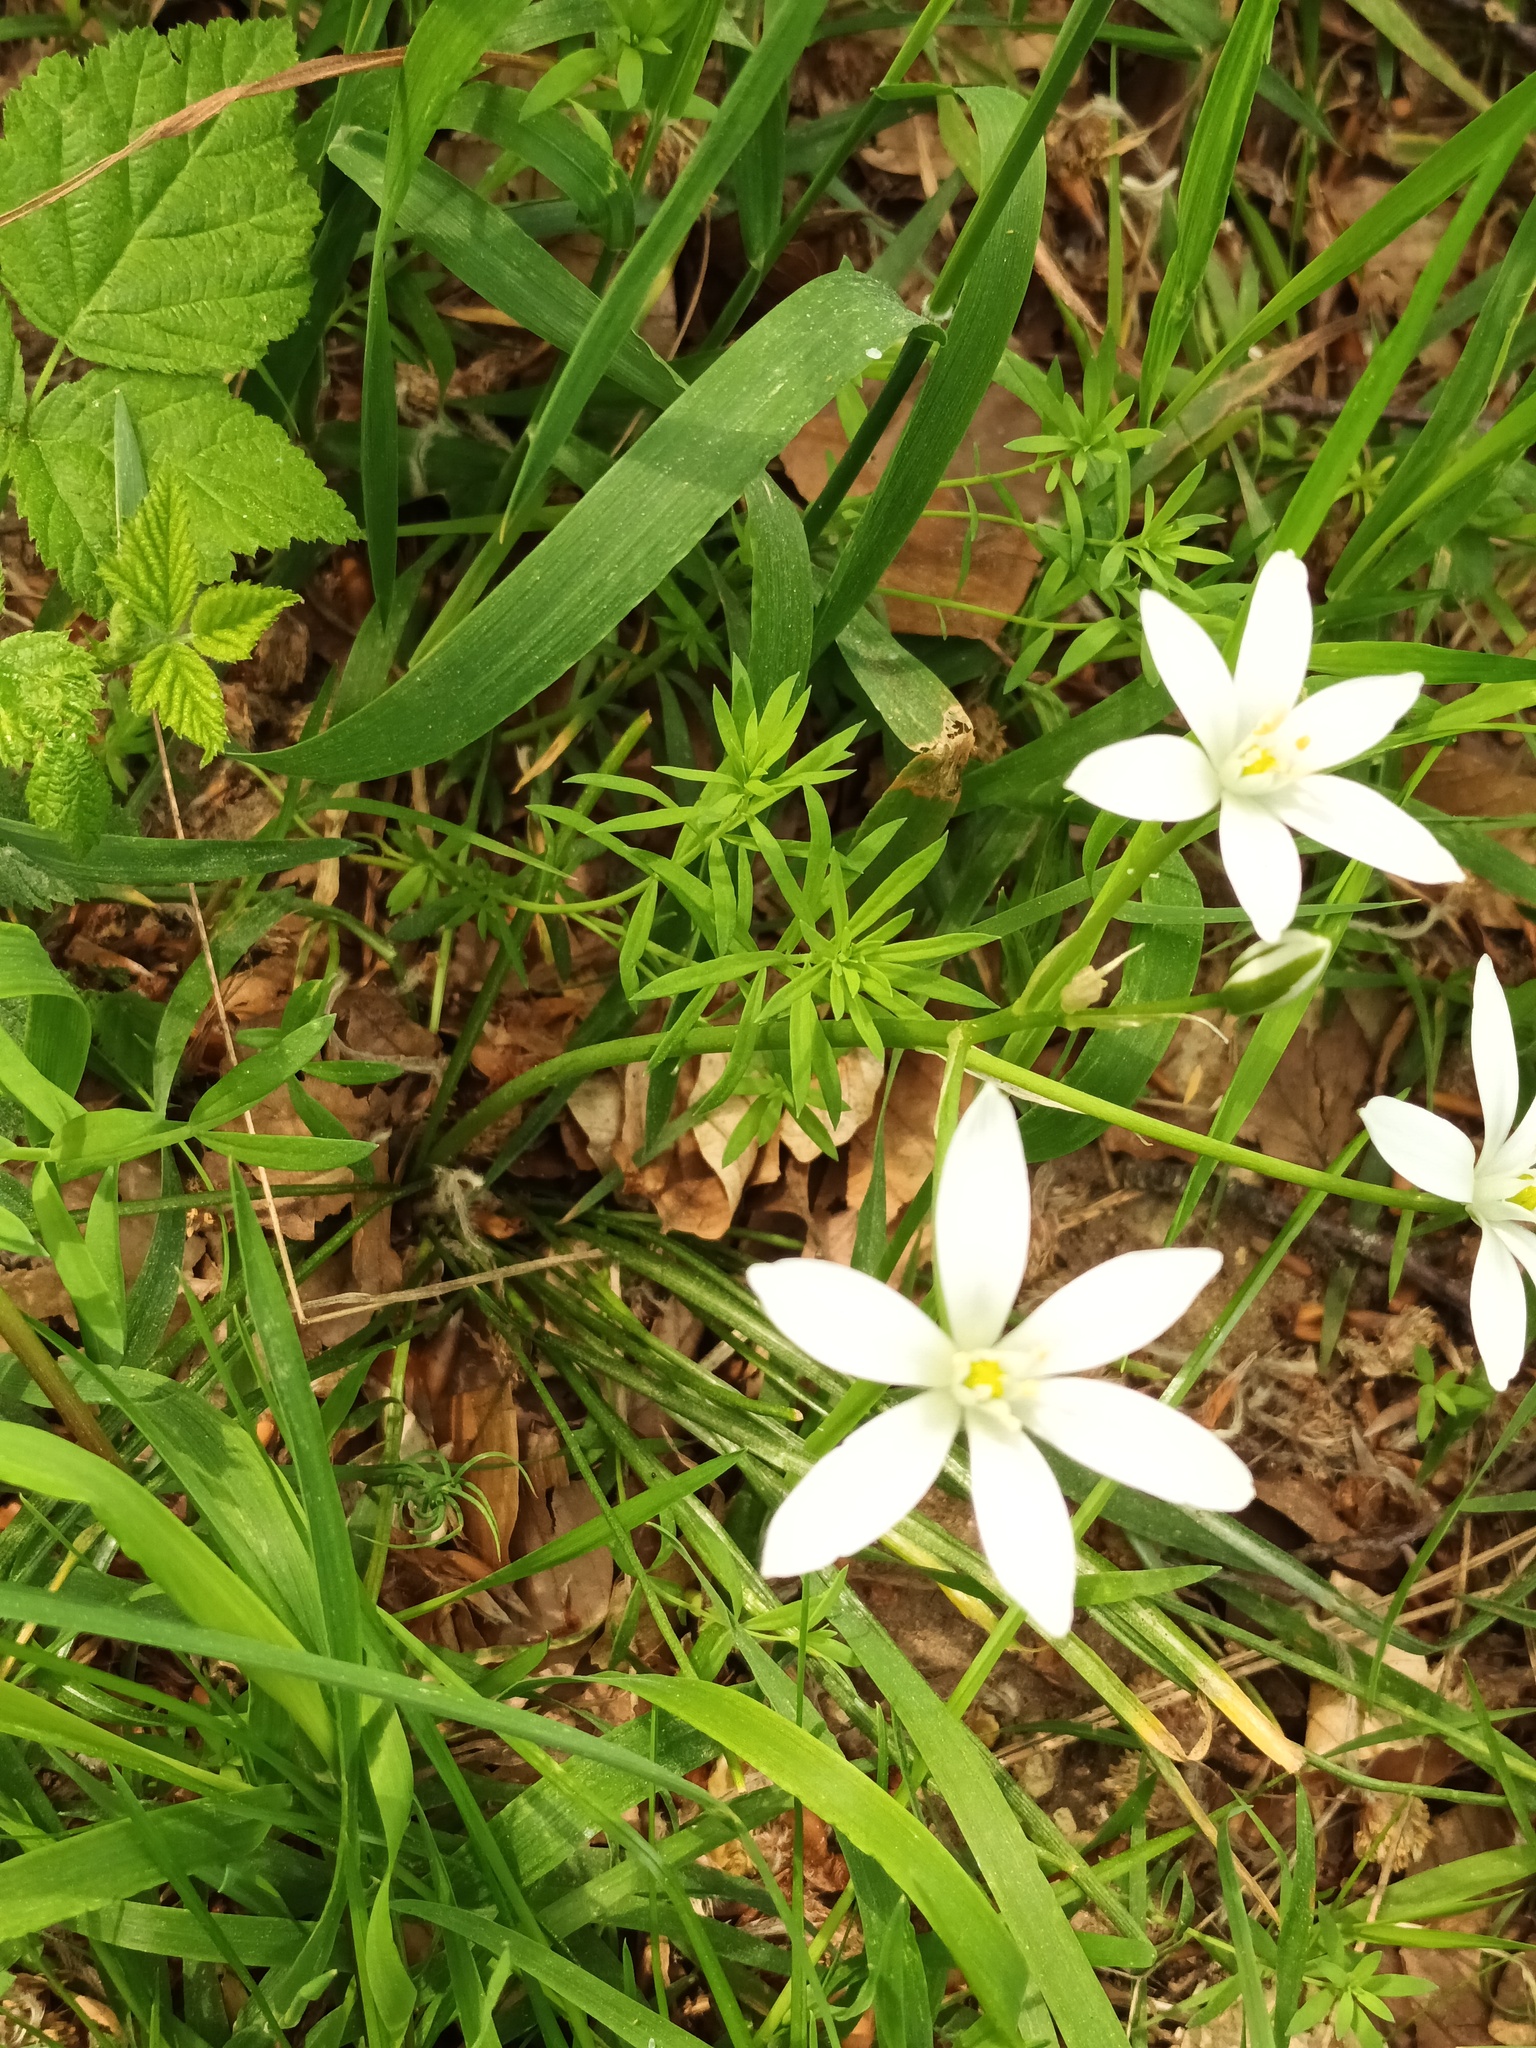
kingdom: Plantae
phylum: Tracheophyta
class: Liliopsida
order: Asparagales
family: Asparagaceae
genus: Ornithogalum
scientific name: Ornithogalum umbellatum
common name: Garden star-of-bethlehem
